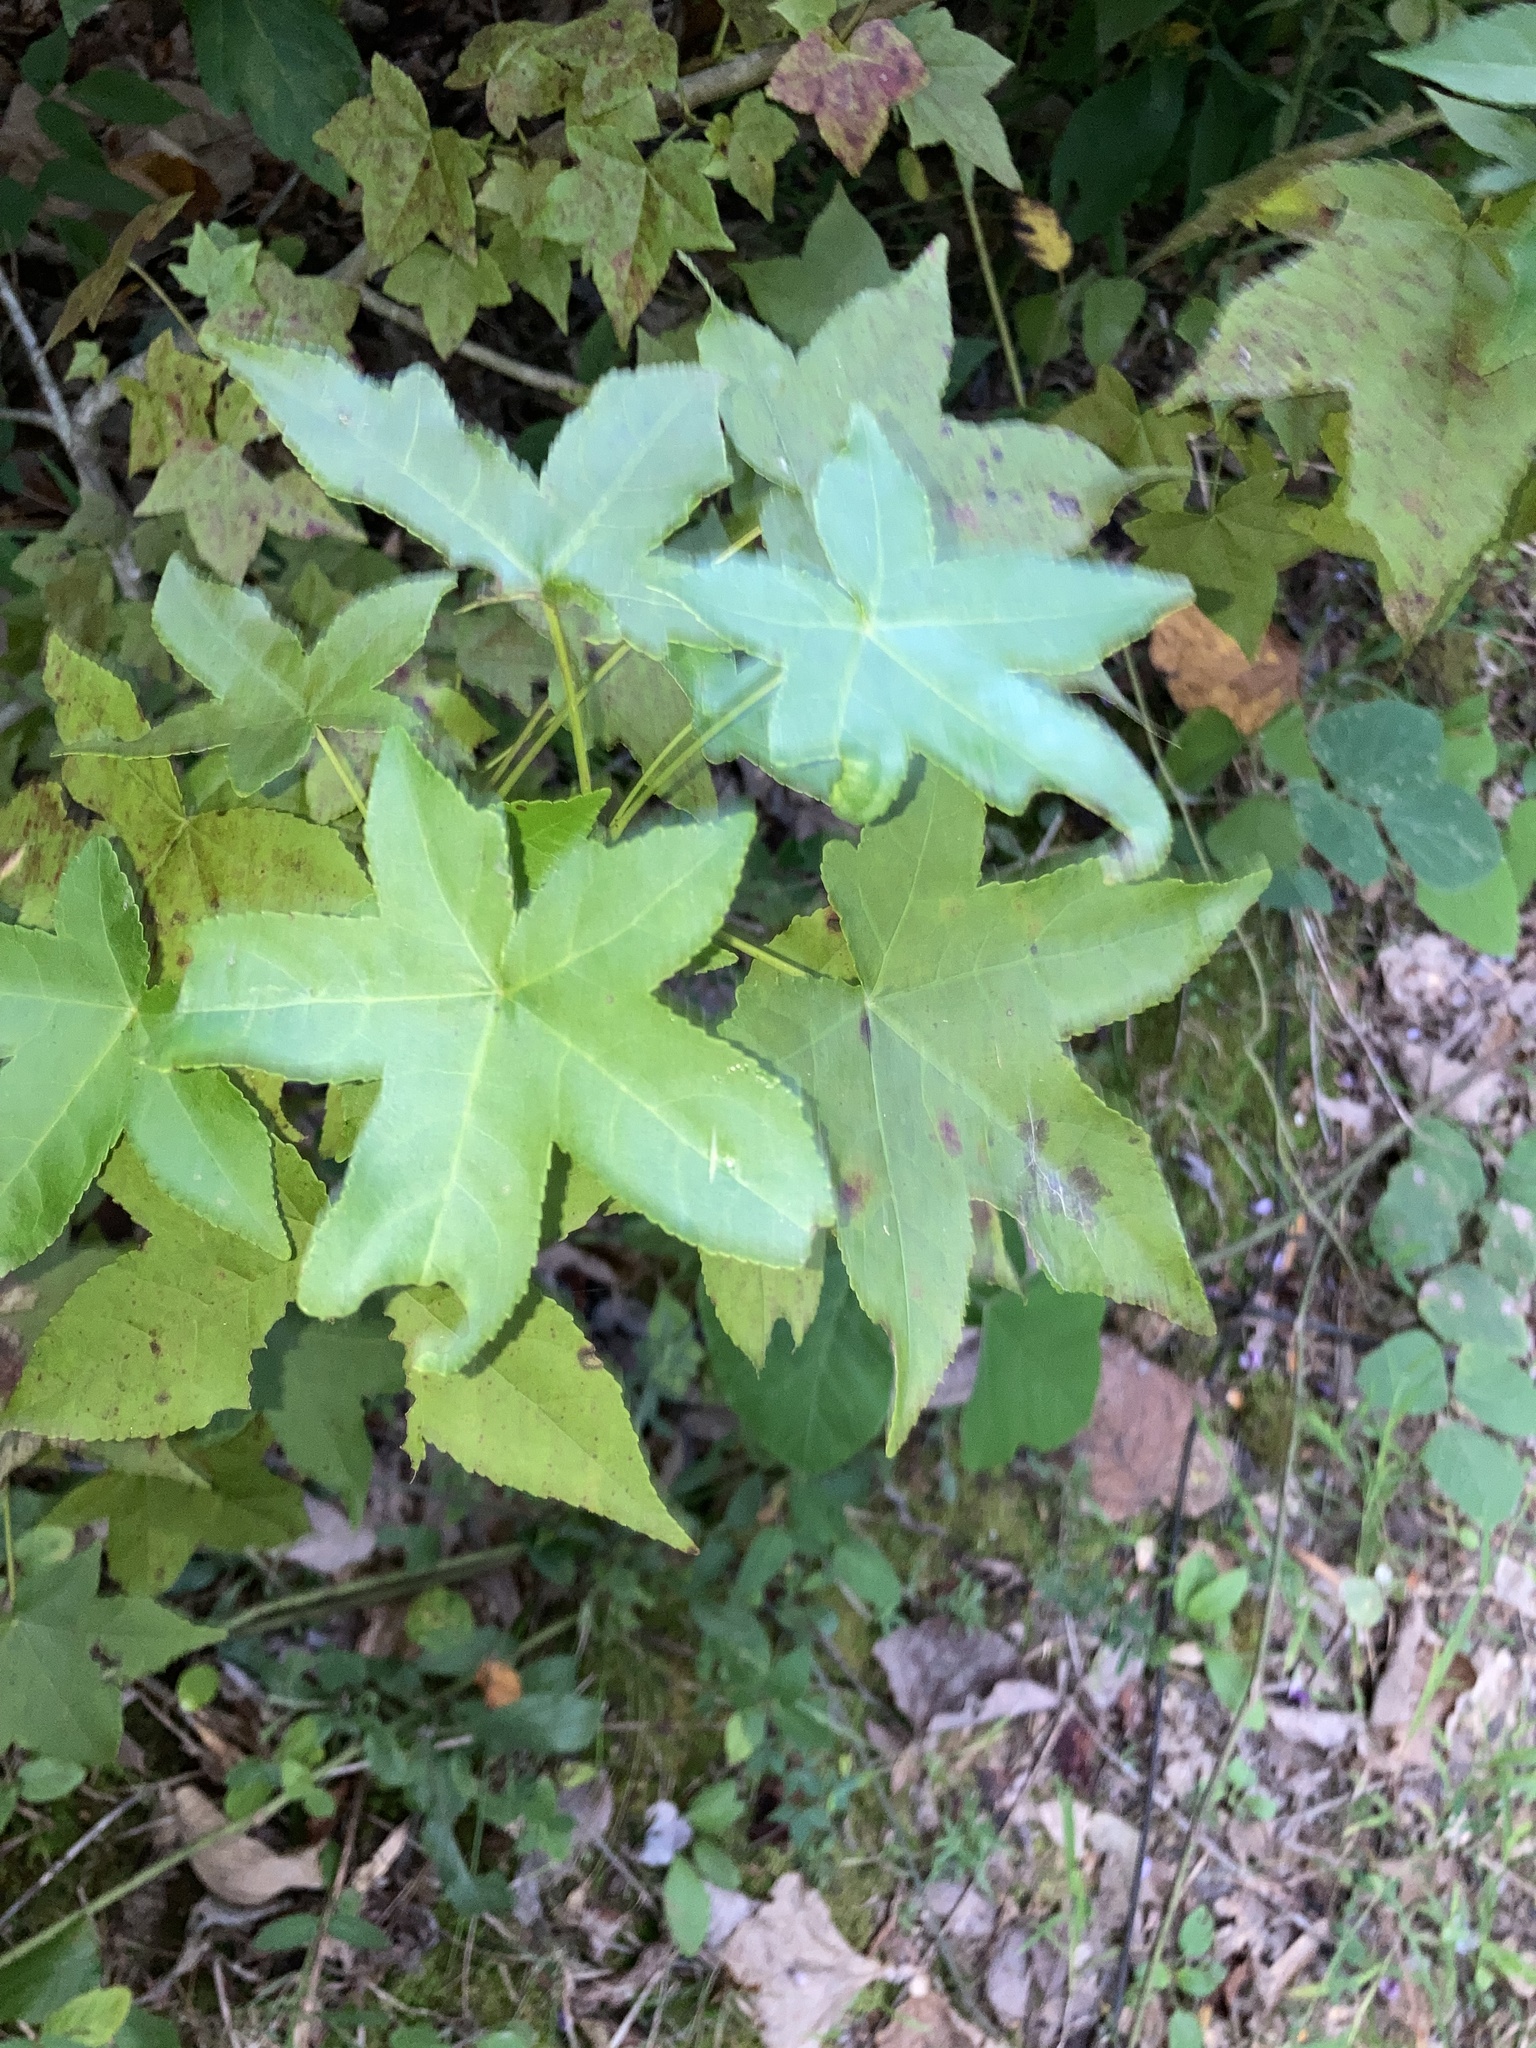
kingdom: Plantae
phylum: Tracheophyta
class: Magnoliopsida
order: Saxifragales
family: Altingiaceae
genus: Liquidambar
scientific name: Liquidambar styraciflua
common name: Sweet gum
